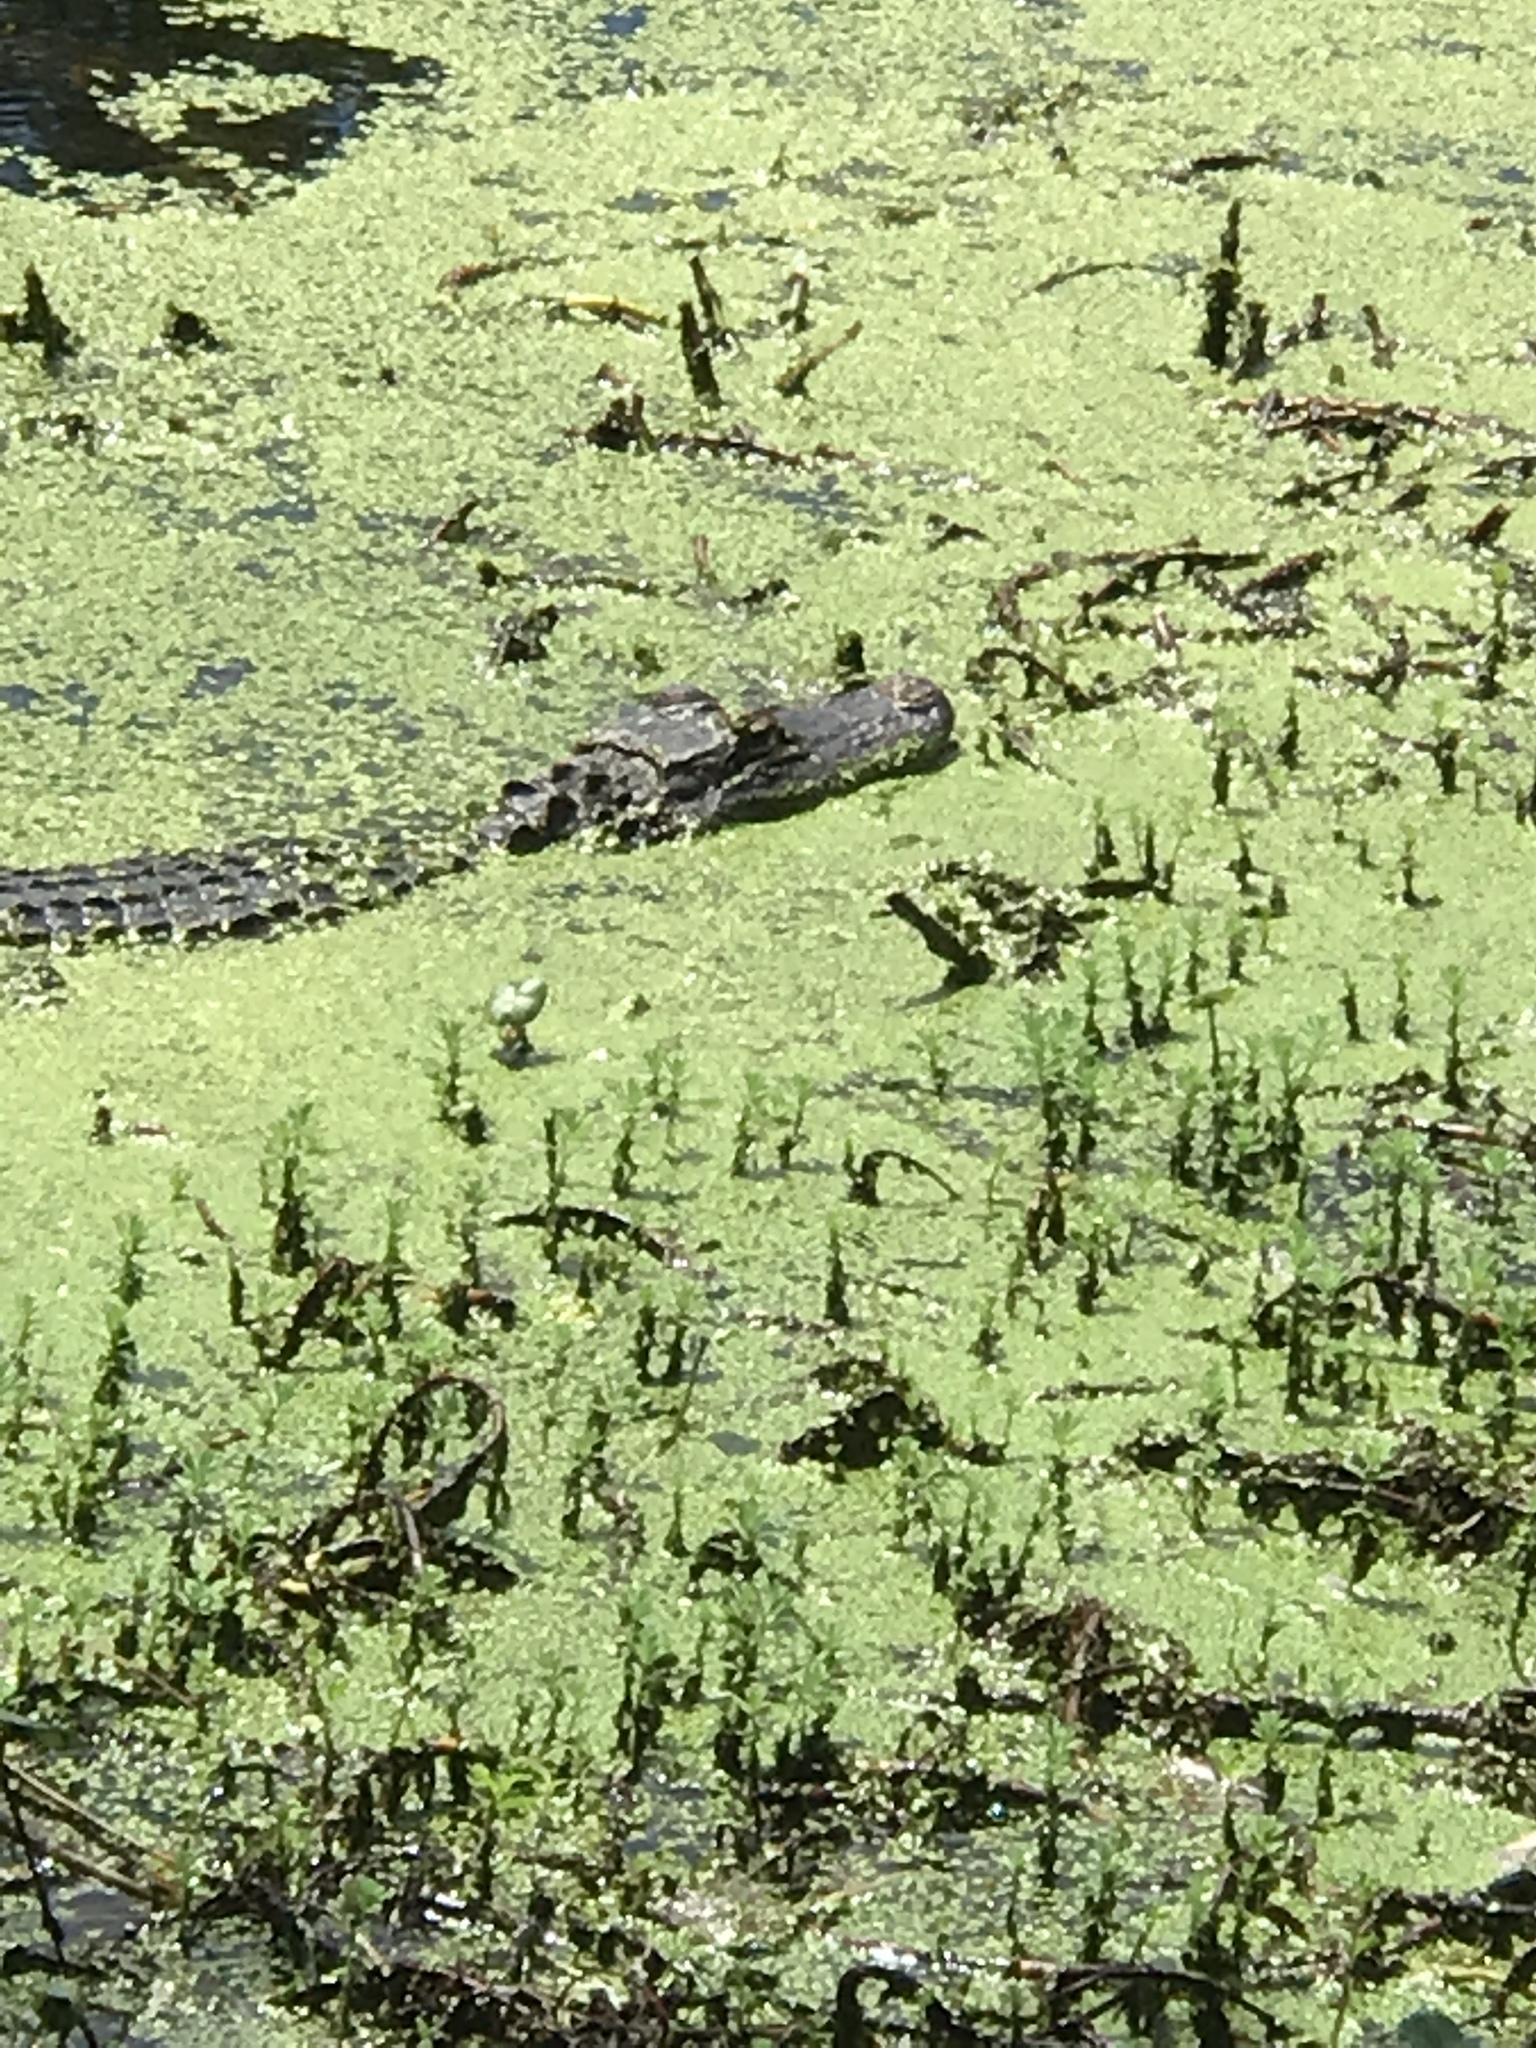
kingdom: Animalia
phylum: Chordata
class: Crocodylia
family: Alligatoridae
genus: Alligator
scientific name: Alligator mississippiensis
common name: American alligator
